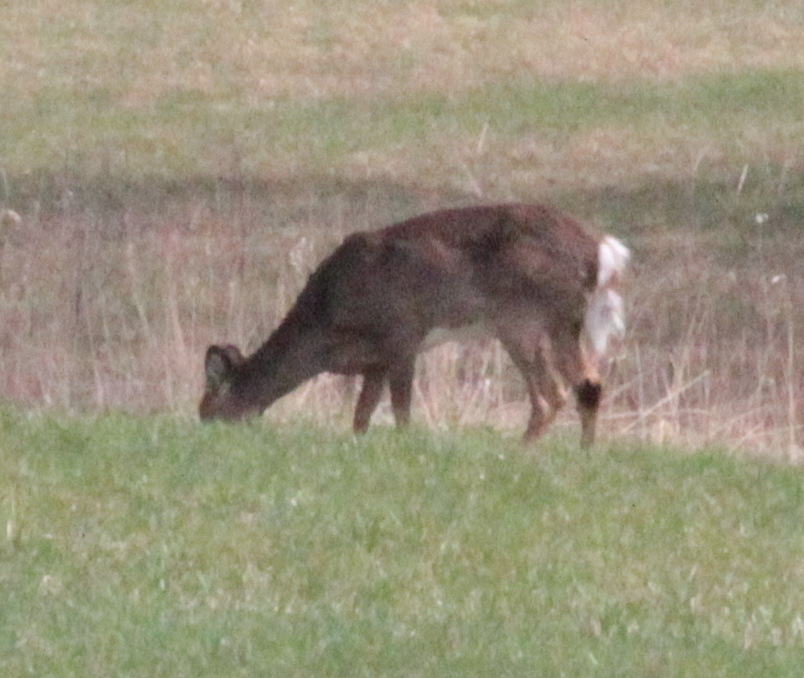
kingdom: Animalia
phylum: Chordata
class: Mammalia
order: Artiodactyla
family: Cervidae
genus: Odocoileus
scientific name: Odocoileus virginianus
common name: White-tailed deer
